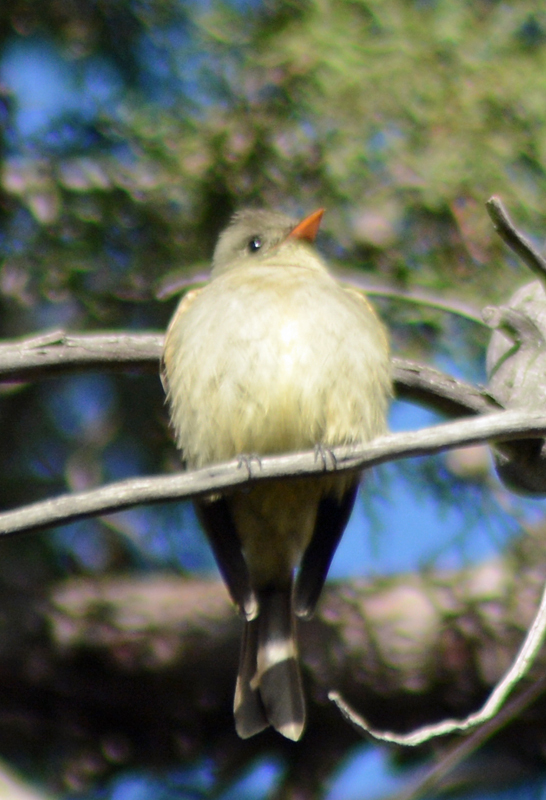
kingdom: Animalia
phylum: Chordata
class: Aves
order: Passeriformes
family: Tyrannidae
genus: Contopus
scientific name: Contopus pertinax
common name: Greater pewee
